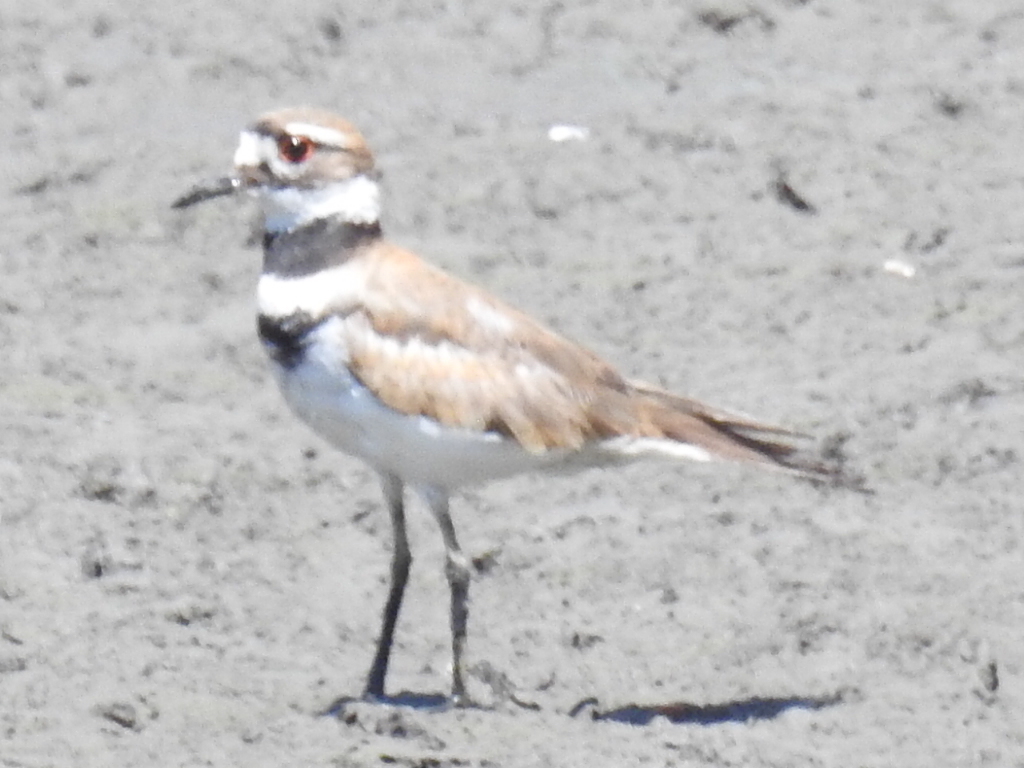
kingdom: Animalia
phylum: Chordata
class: Aves
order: Charadriiformes
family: Charadriidae
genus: Charadrius
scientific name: Charadrius vociferus
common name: Killdeer
